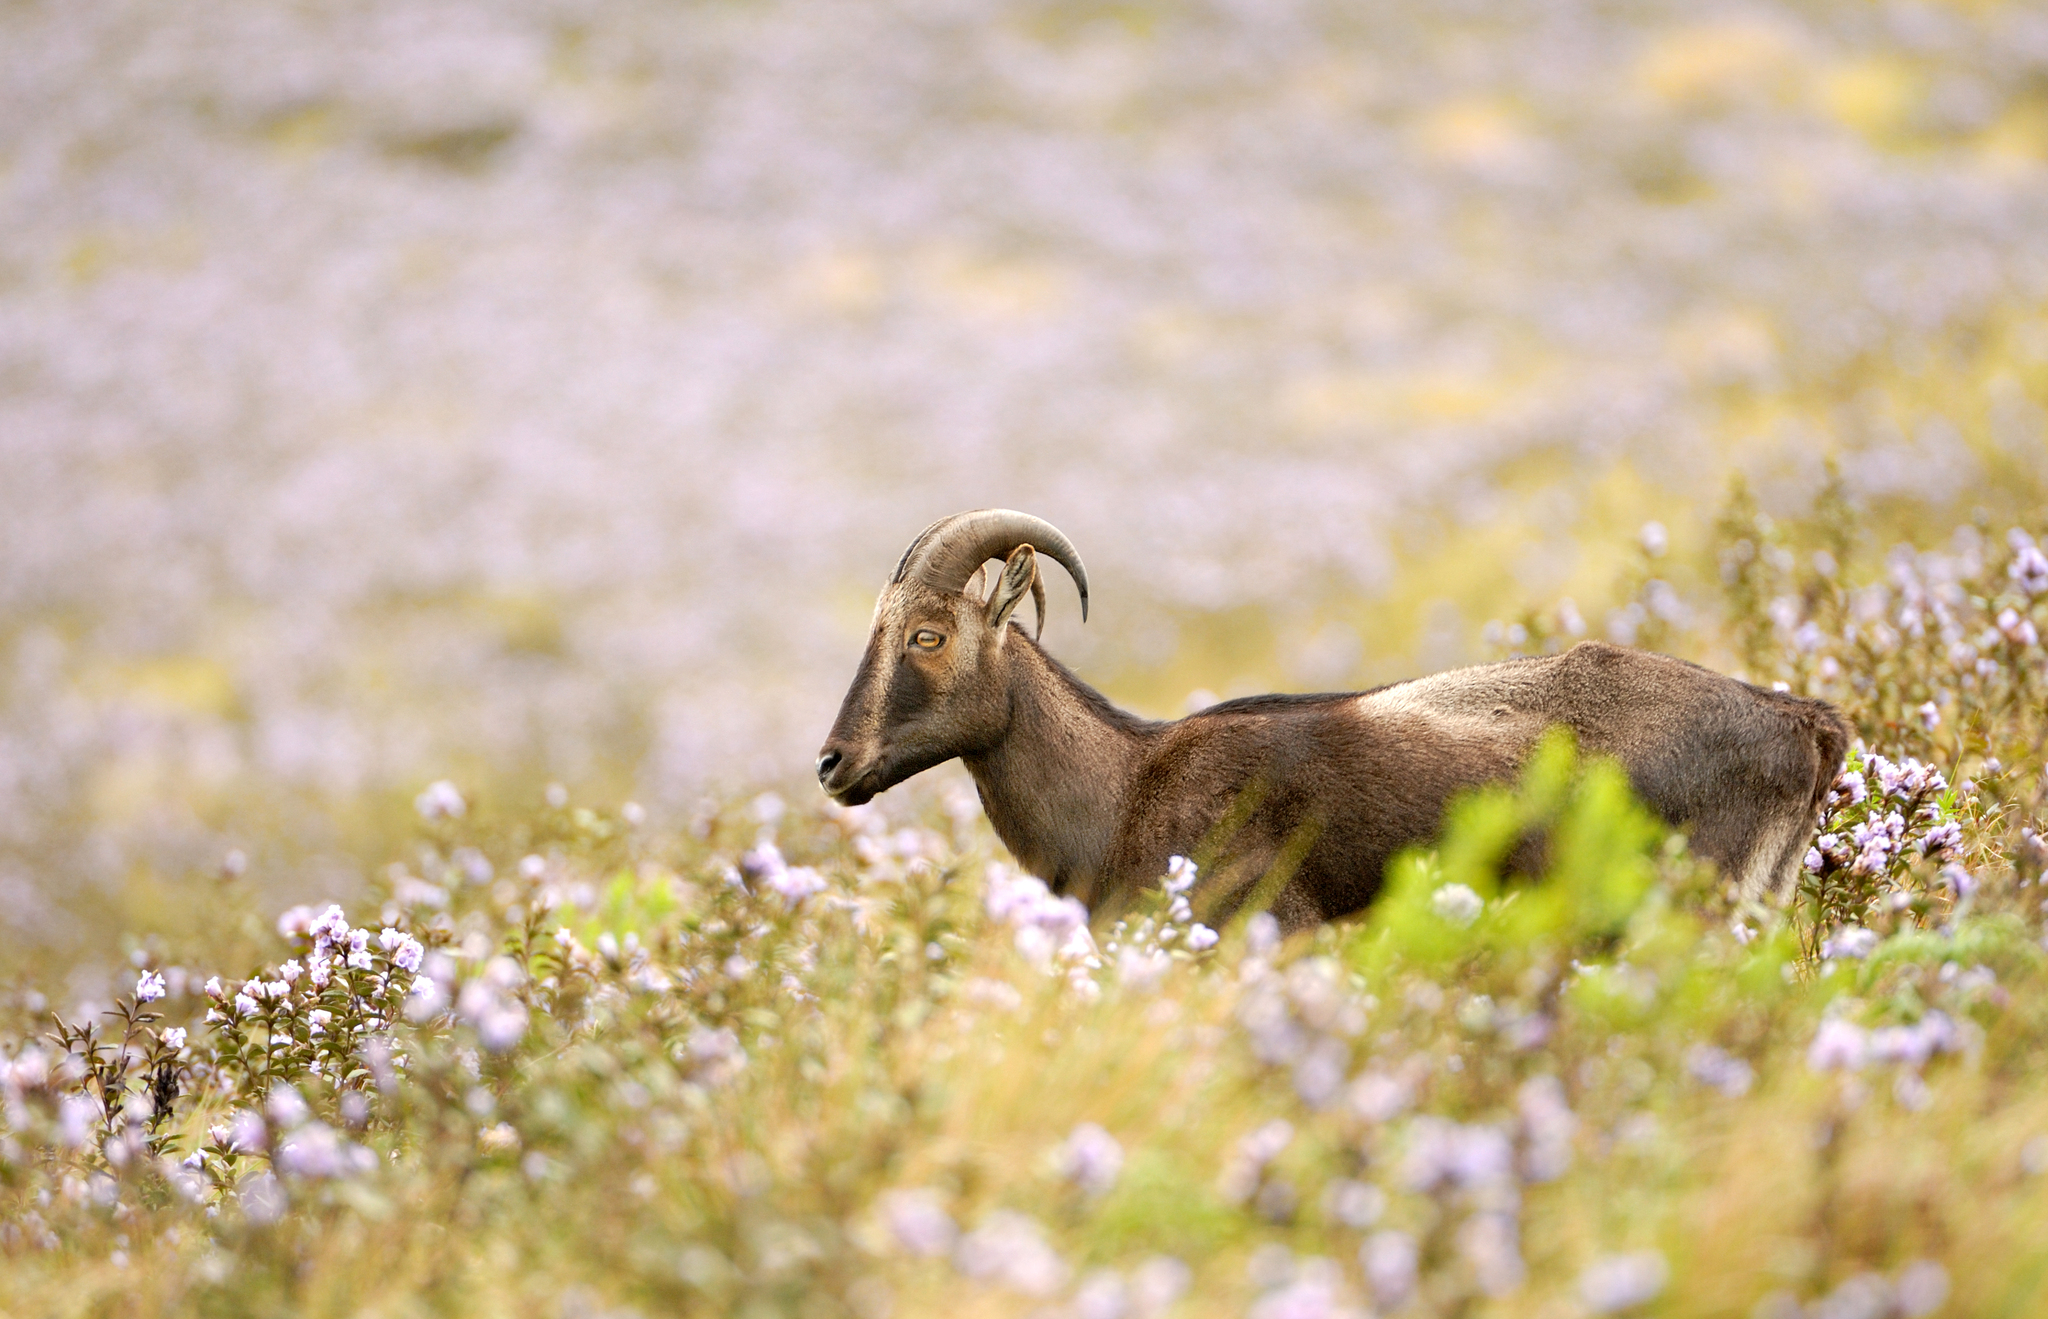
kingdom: Animalia
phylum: Chordata
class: Mammalia
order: Artiodactyla
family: Bovidae
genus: Hemitragus
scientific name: Hemitragus hylocrius
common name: Nilgiri tahr
